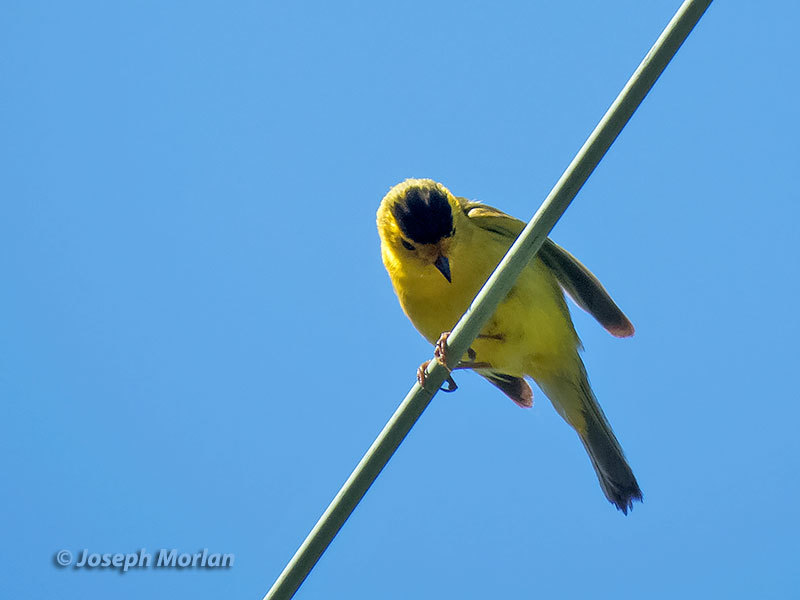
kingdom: Animalia
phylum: Chordata
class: Aves
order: Passeriformes
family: Parulidae
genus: Cardellina
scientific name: Cardellina pusilla
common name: Wilson's warbler
